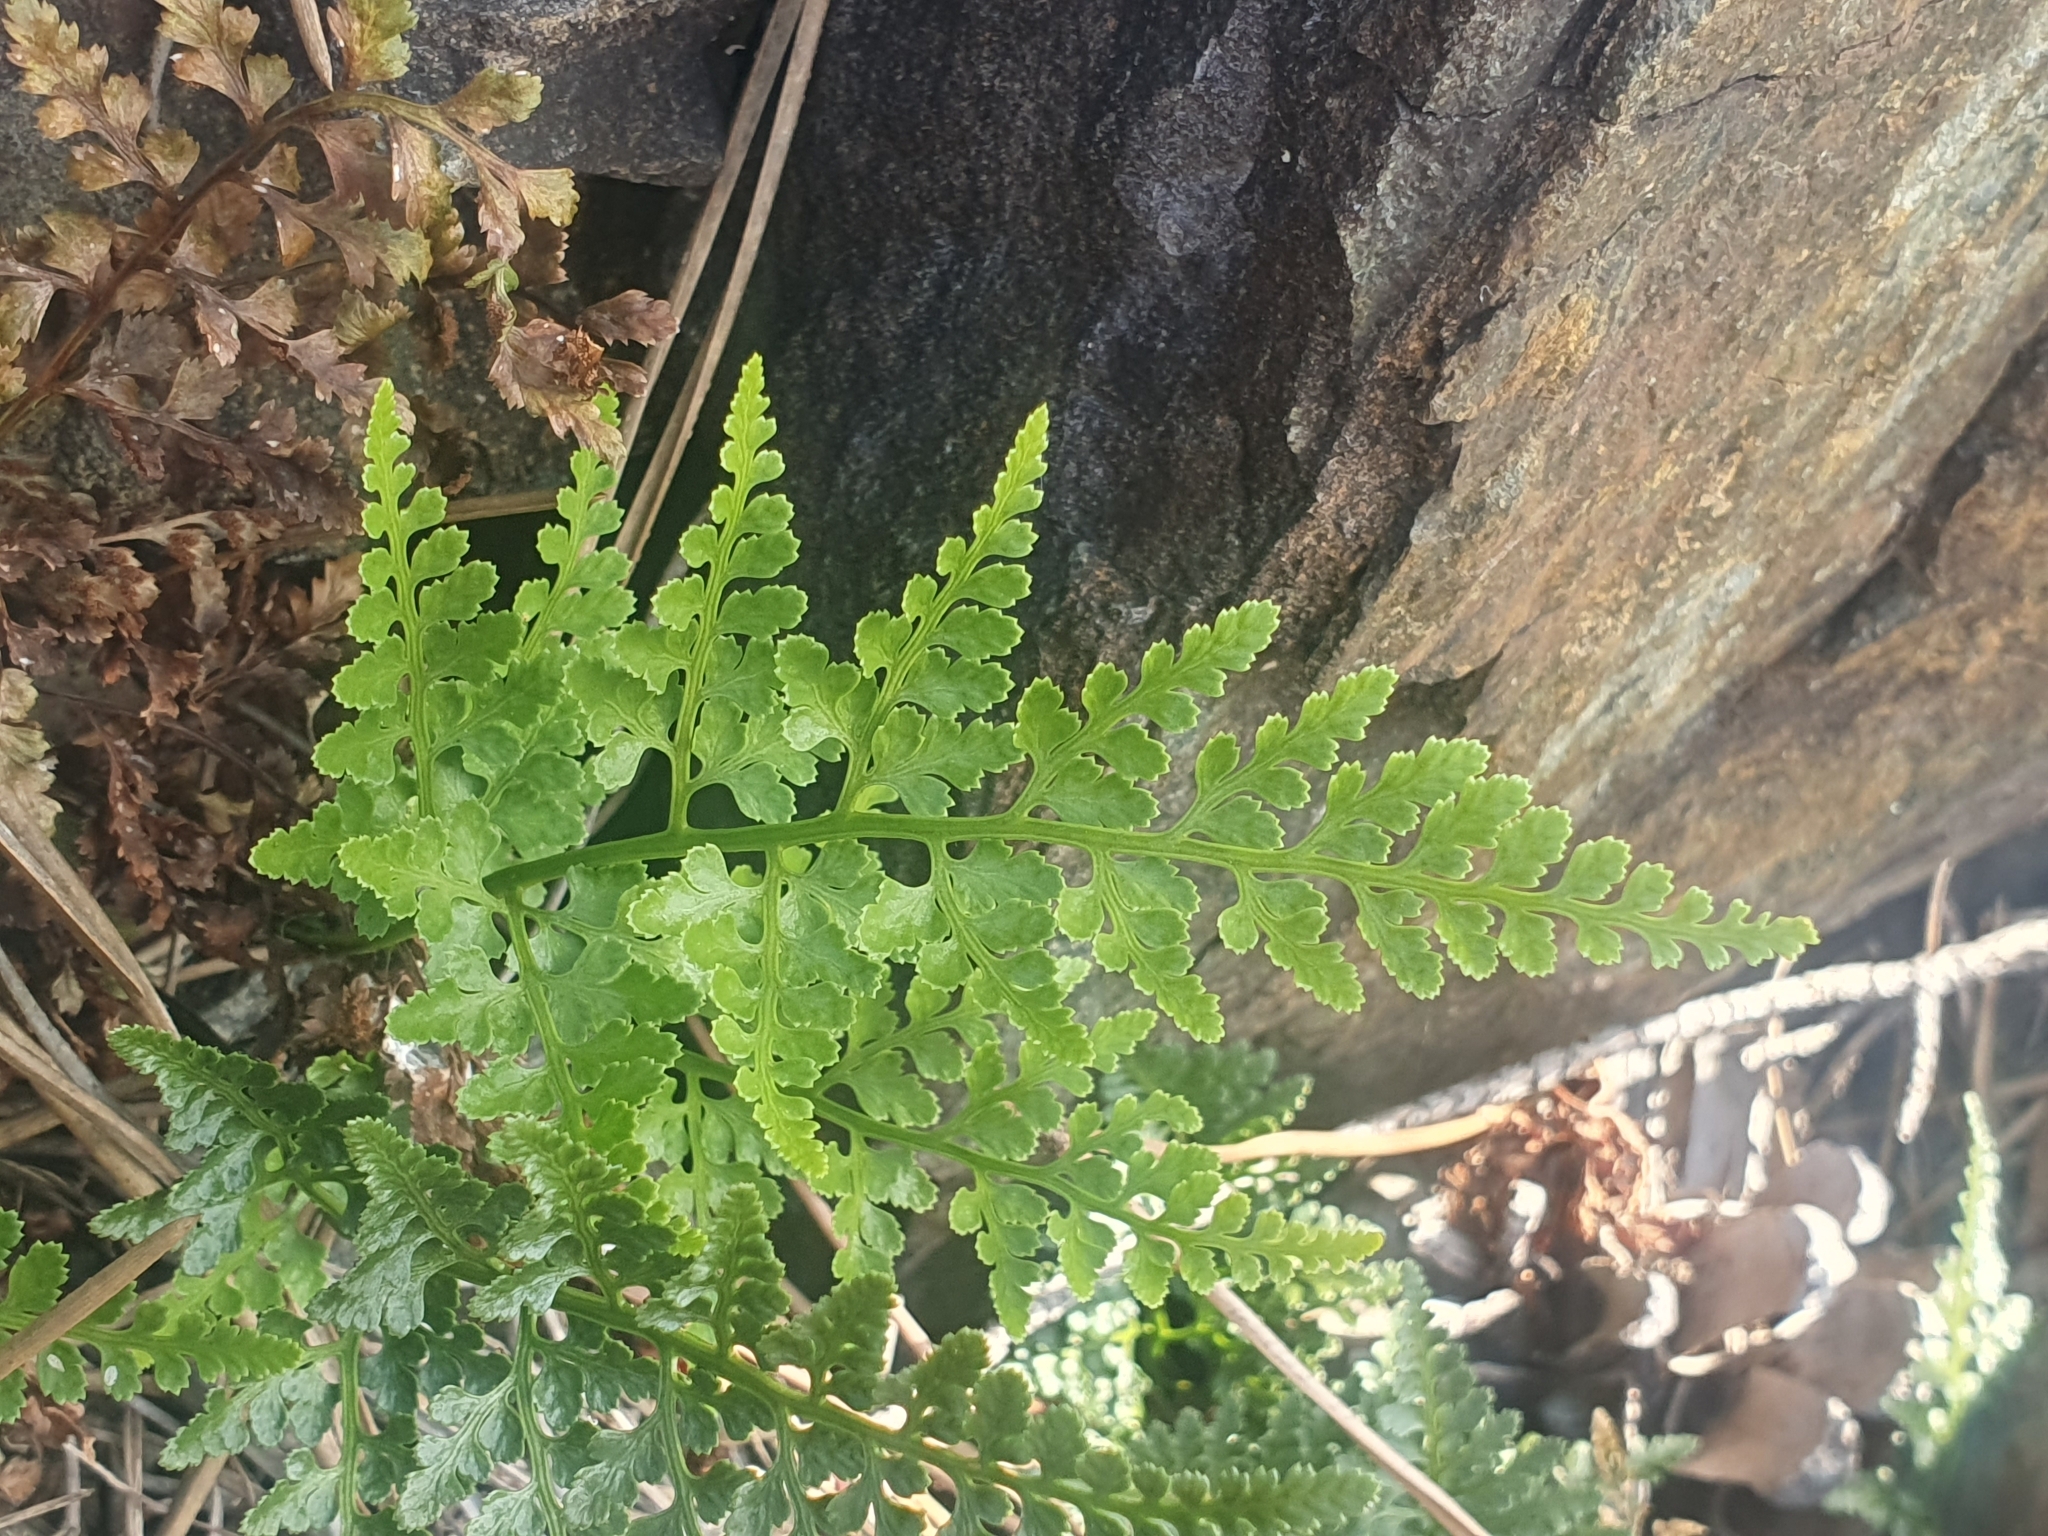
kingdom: Plantae
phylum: Tracheophyta
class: Polypodiopsida
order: Polypodiales
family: Aspleniaceae
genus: Asplenium
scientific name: Asplenium adiantum-nigrum
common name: Black spleenwort
